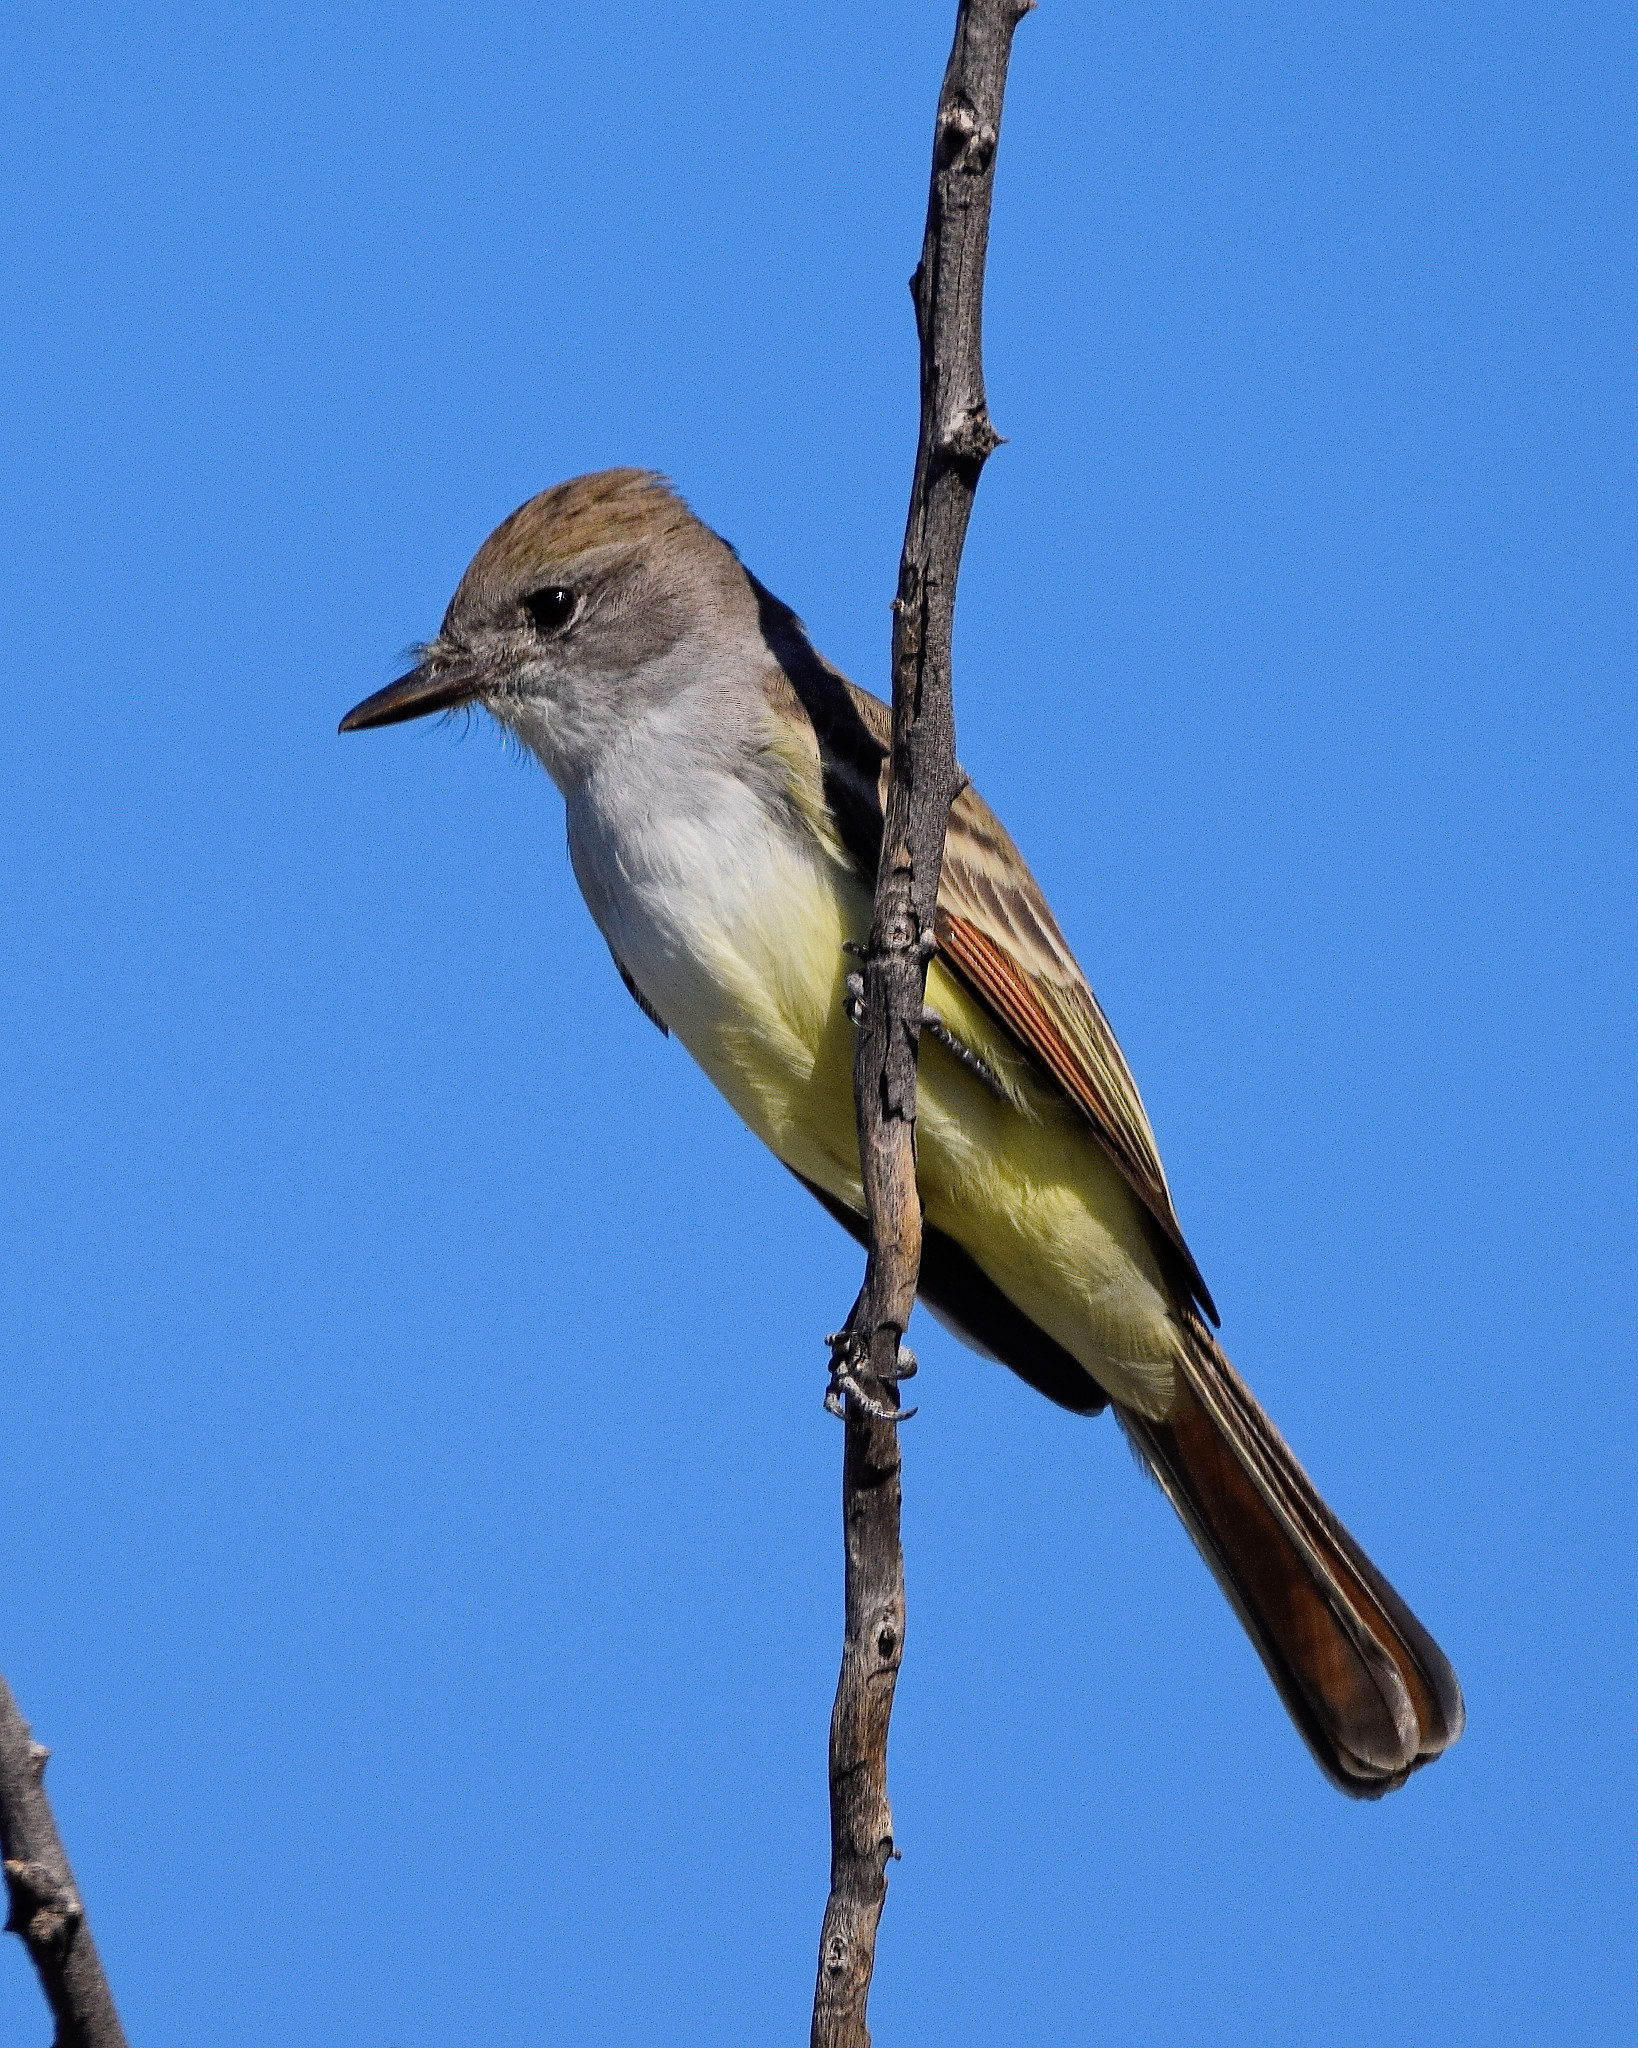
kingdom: Animalia
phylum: Chordata
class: Aves
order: Passeriformes
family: Tyrannidae
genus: Myiarchus
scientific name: Myiarchus cinerascens
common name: Ash-throated flycatcher
